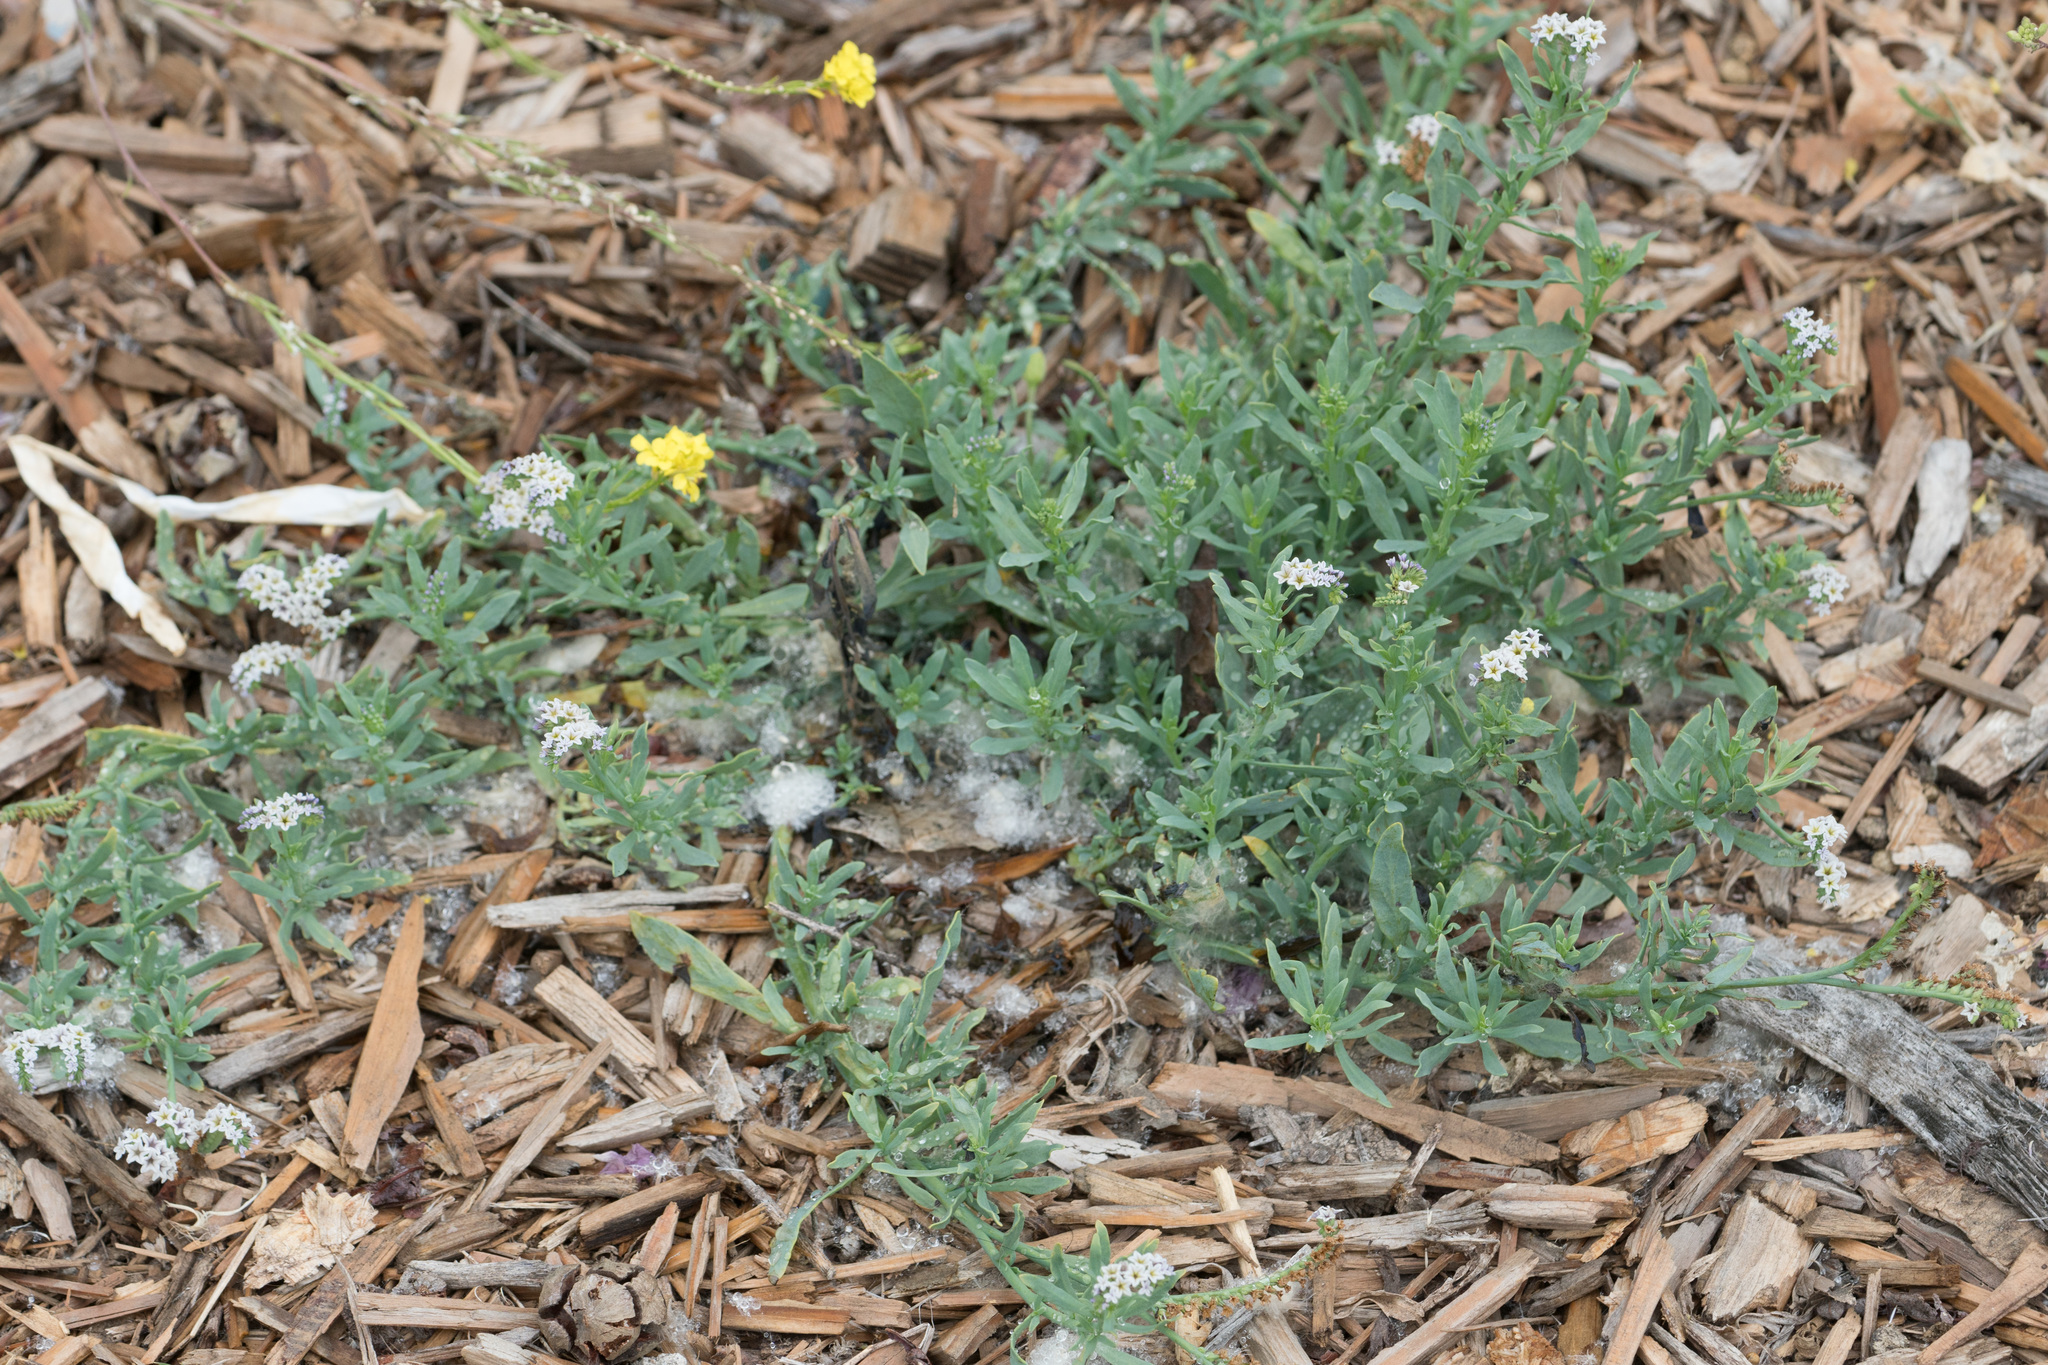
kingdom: Plantae
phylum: Tracheophyta
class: Magnoliopsida
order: Boraginales
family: Heliotropiaceae
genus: Heliotropium
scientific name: Heliotropium curassavicum
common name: Seaside heliotrope
